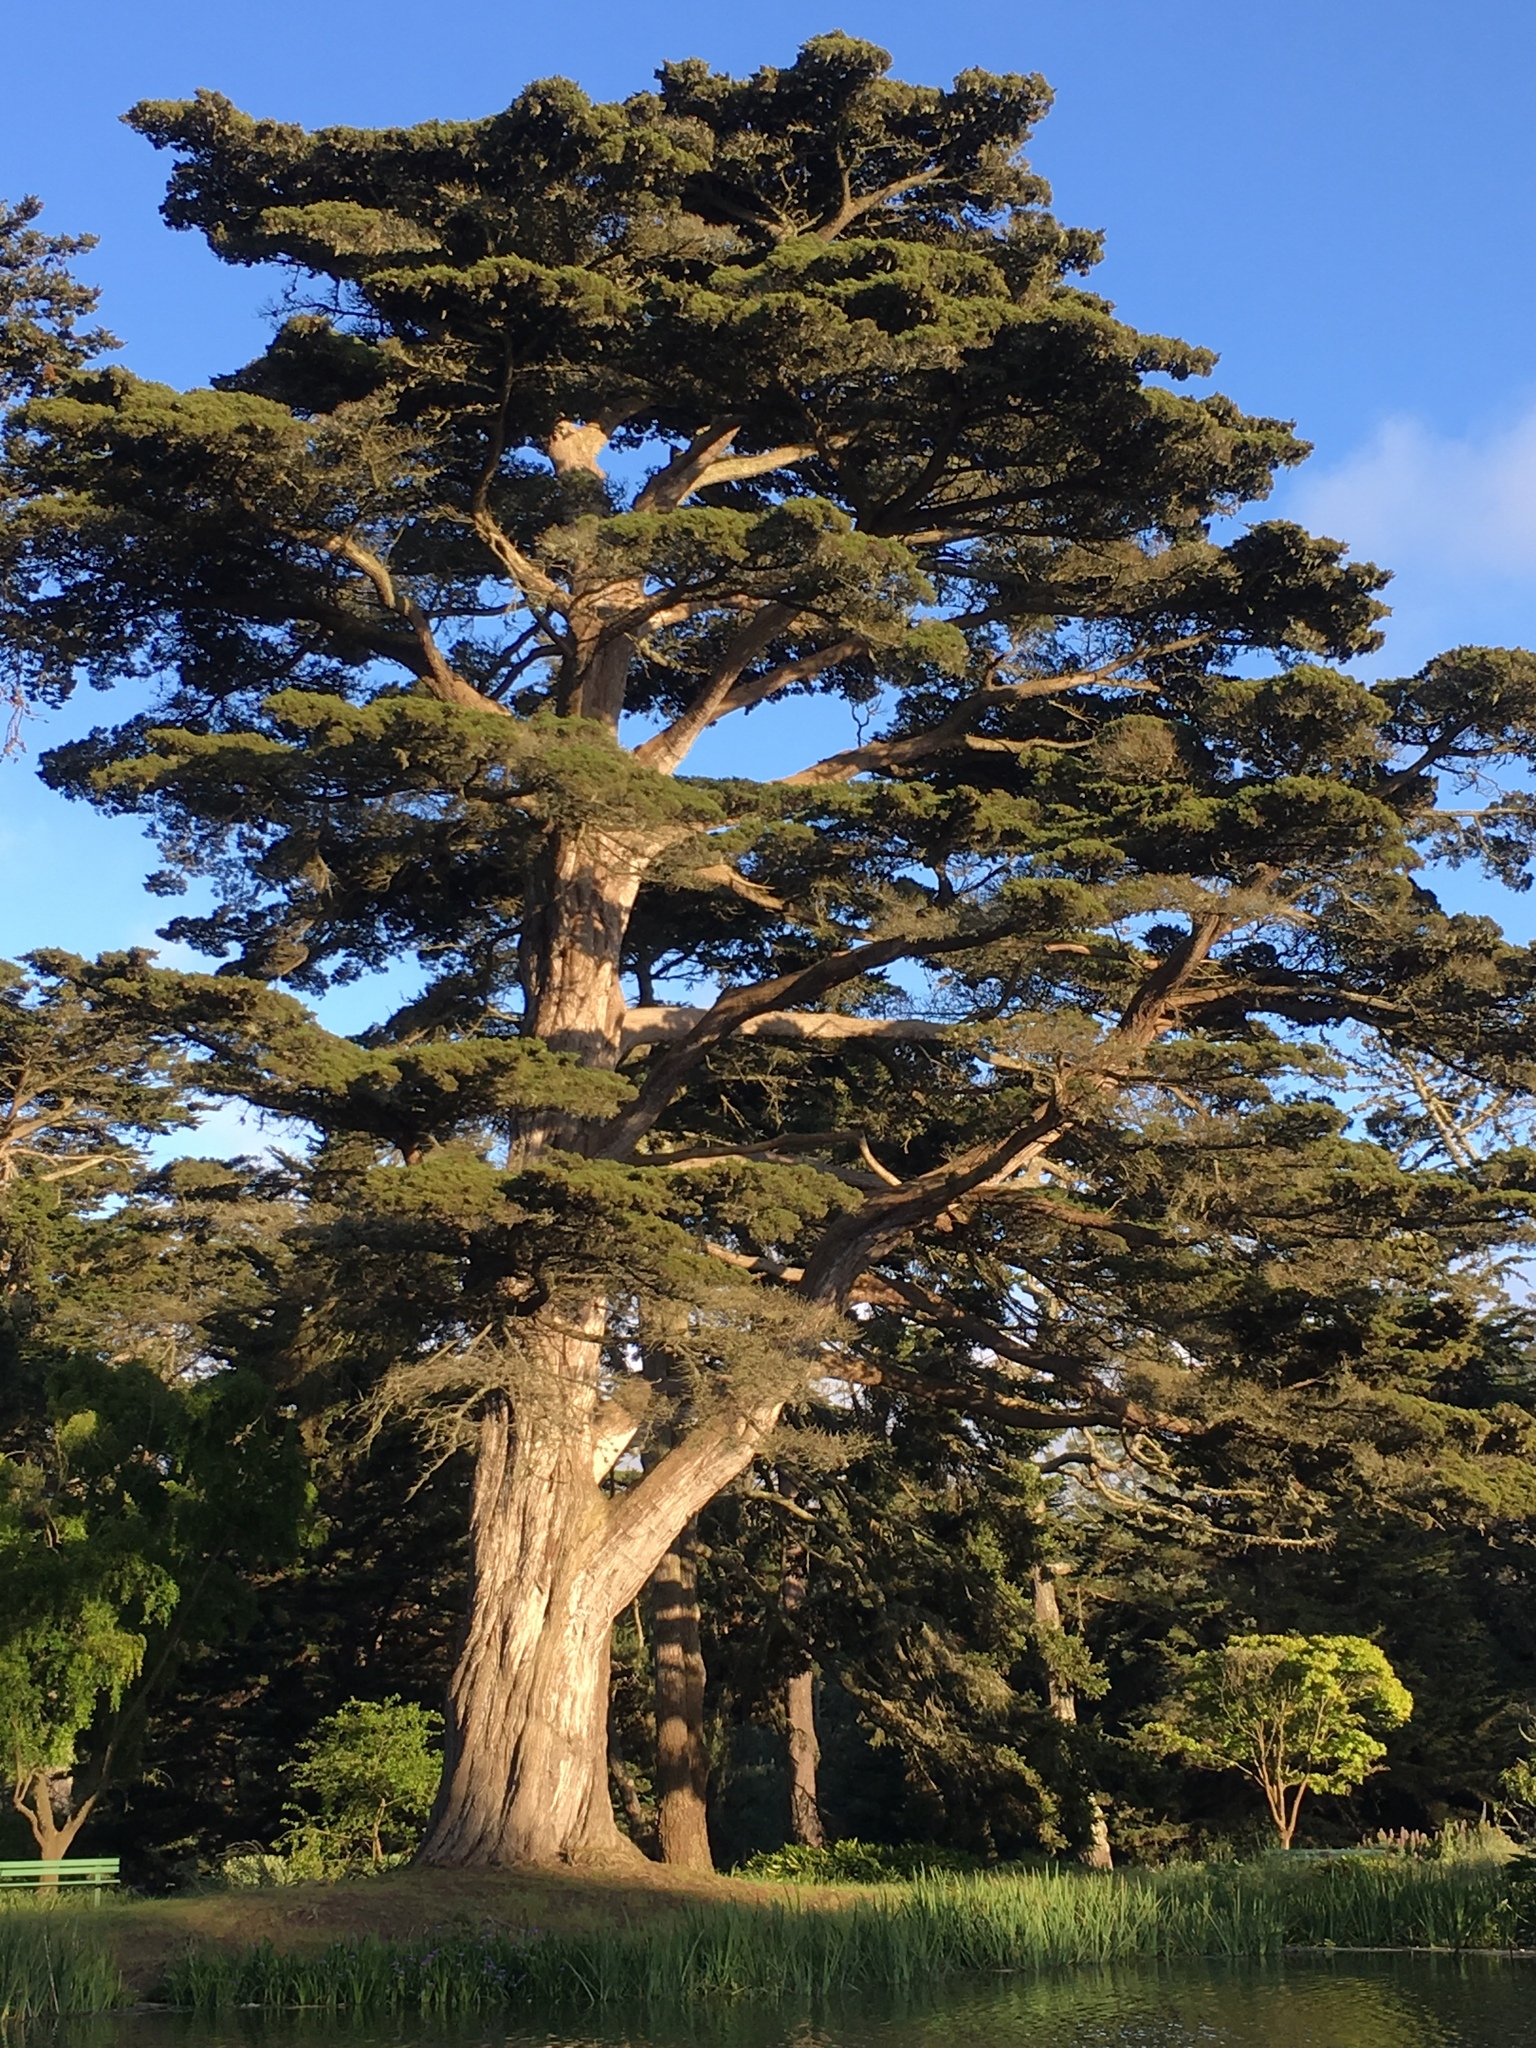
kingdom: Plantae
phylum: Tracheophyta
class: Pinopsida
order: Pinales
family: Cupressaceae
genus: Cupressus
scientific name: Cupressus macrocarpa
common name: Monterey cypress
